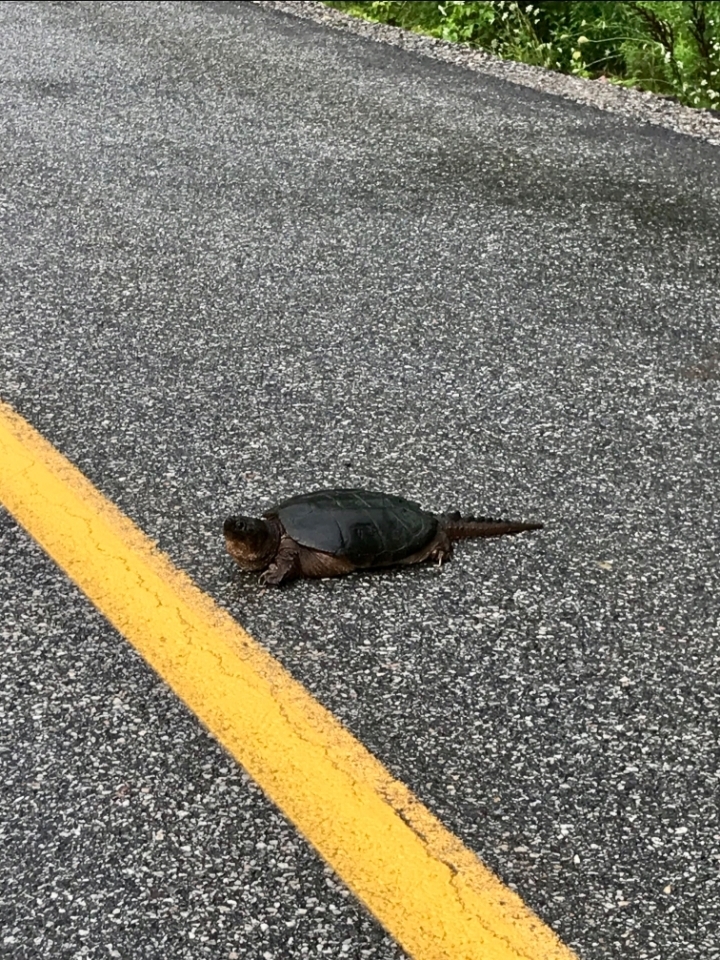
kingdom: Animalia
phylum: Chordata
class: Testudines
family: Chelydridae
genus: Chelydra
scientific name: Chelydra serpentina
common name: Common snapping turtle
